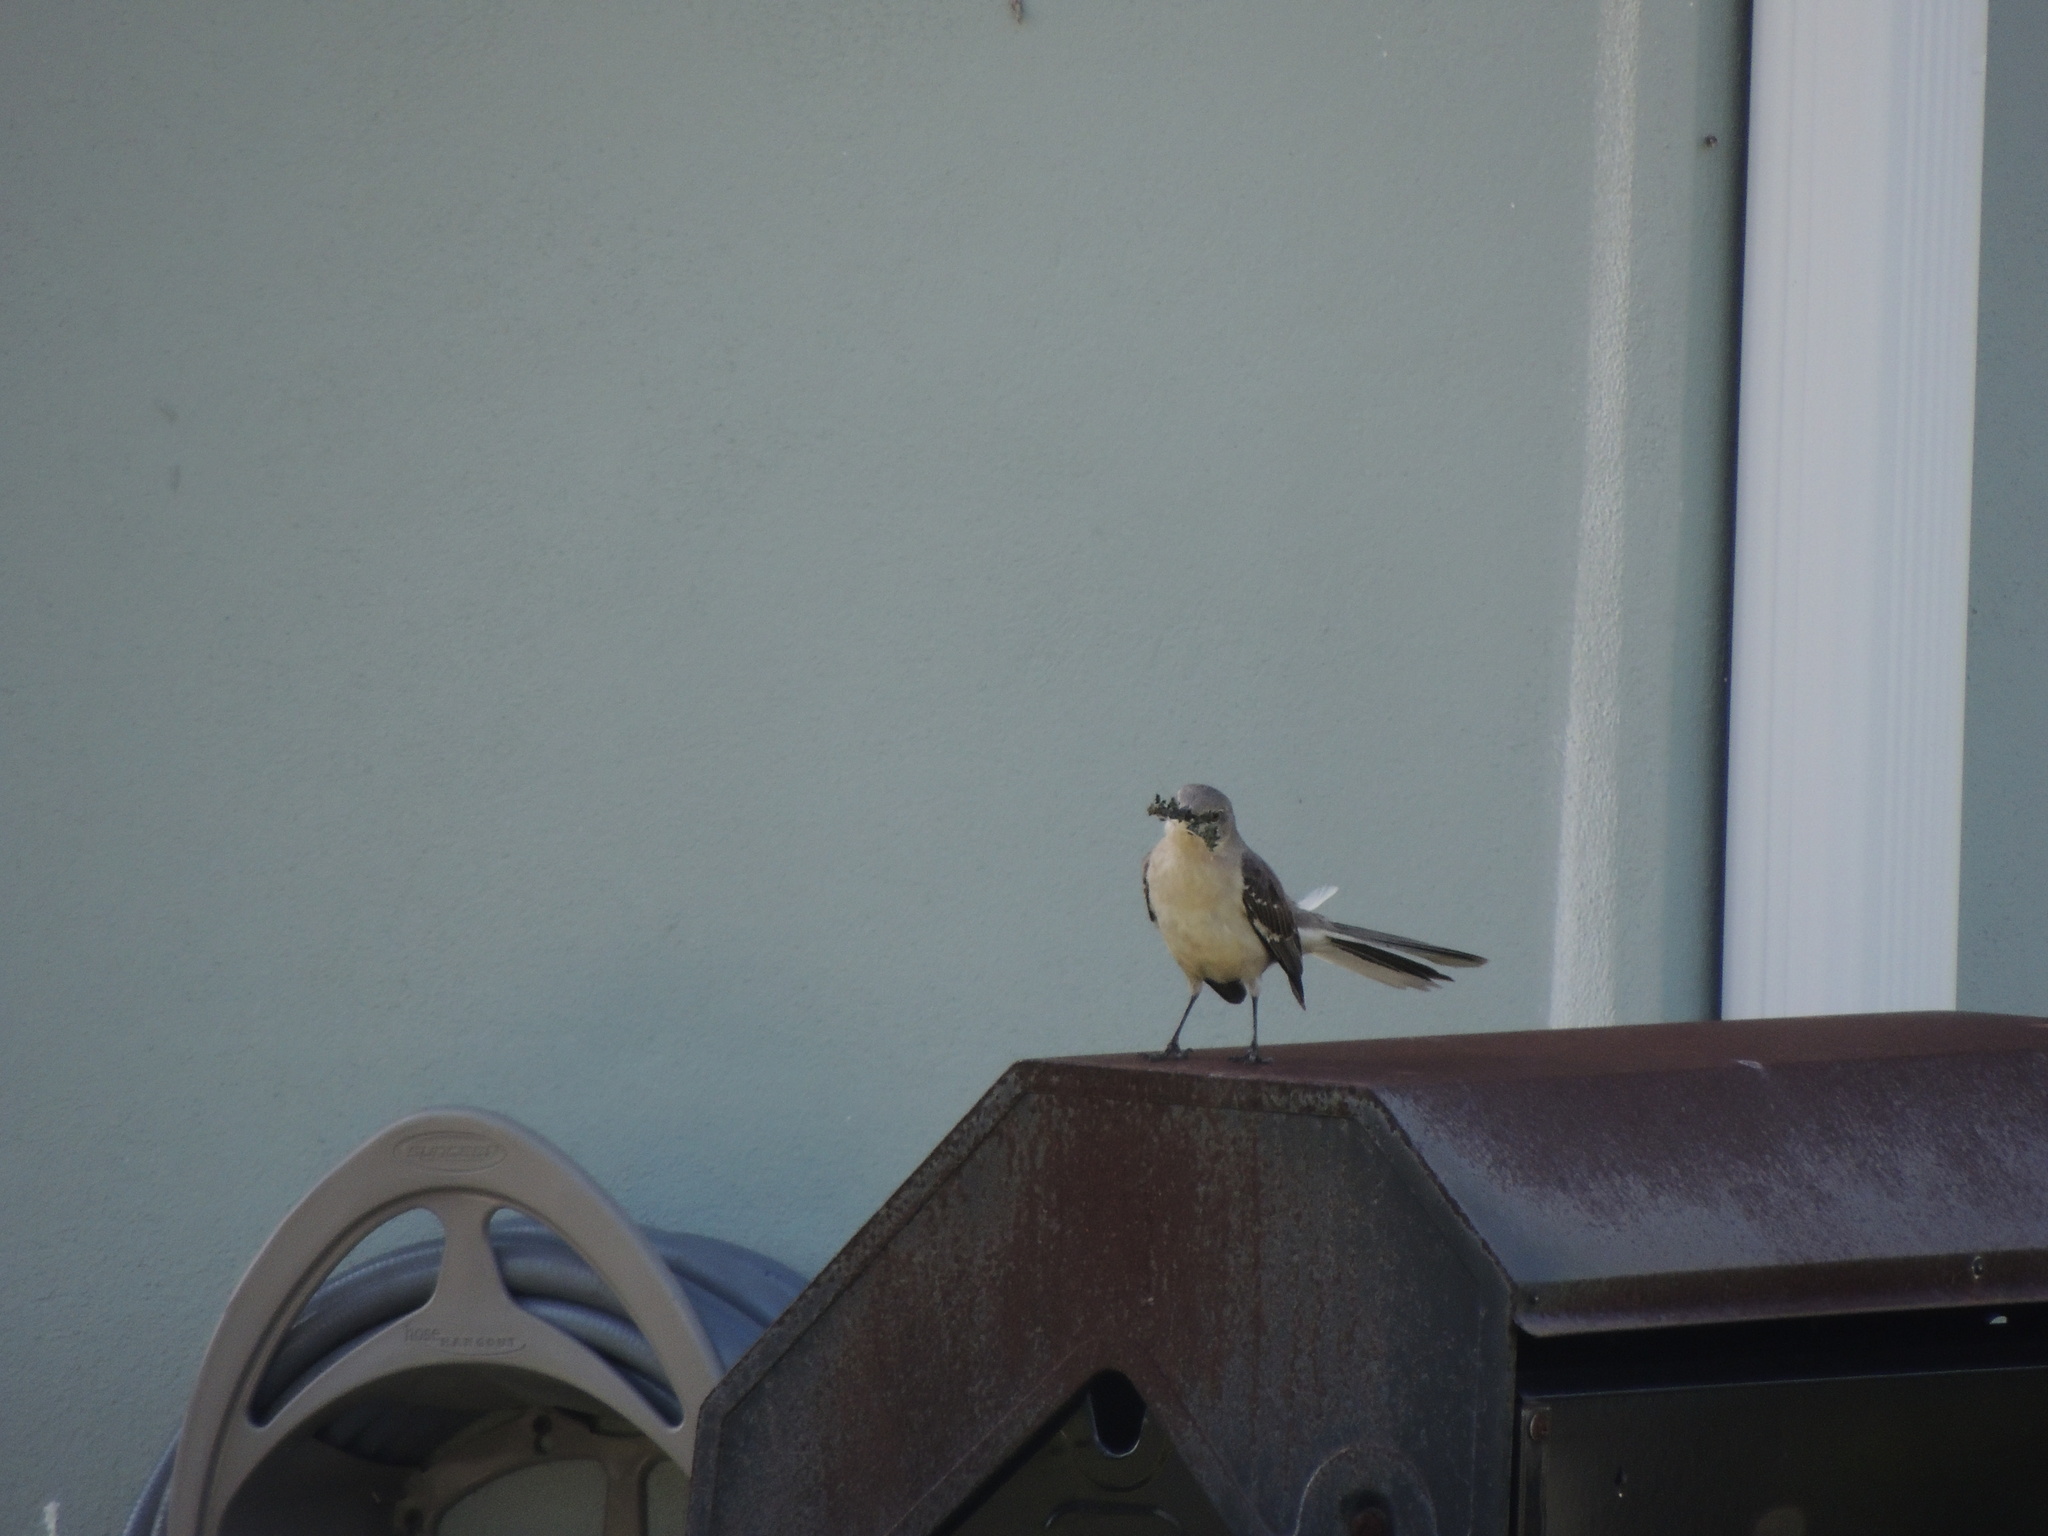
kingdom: Animalia
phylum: Chordata
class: Aves
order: Passeriformes
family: Mimidae
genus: Mimus
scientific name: Mimus polyglottos
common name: Northern mockingbird
